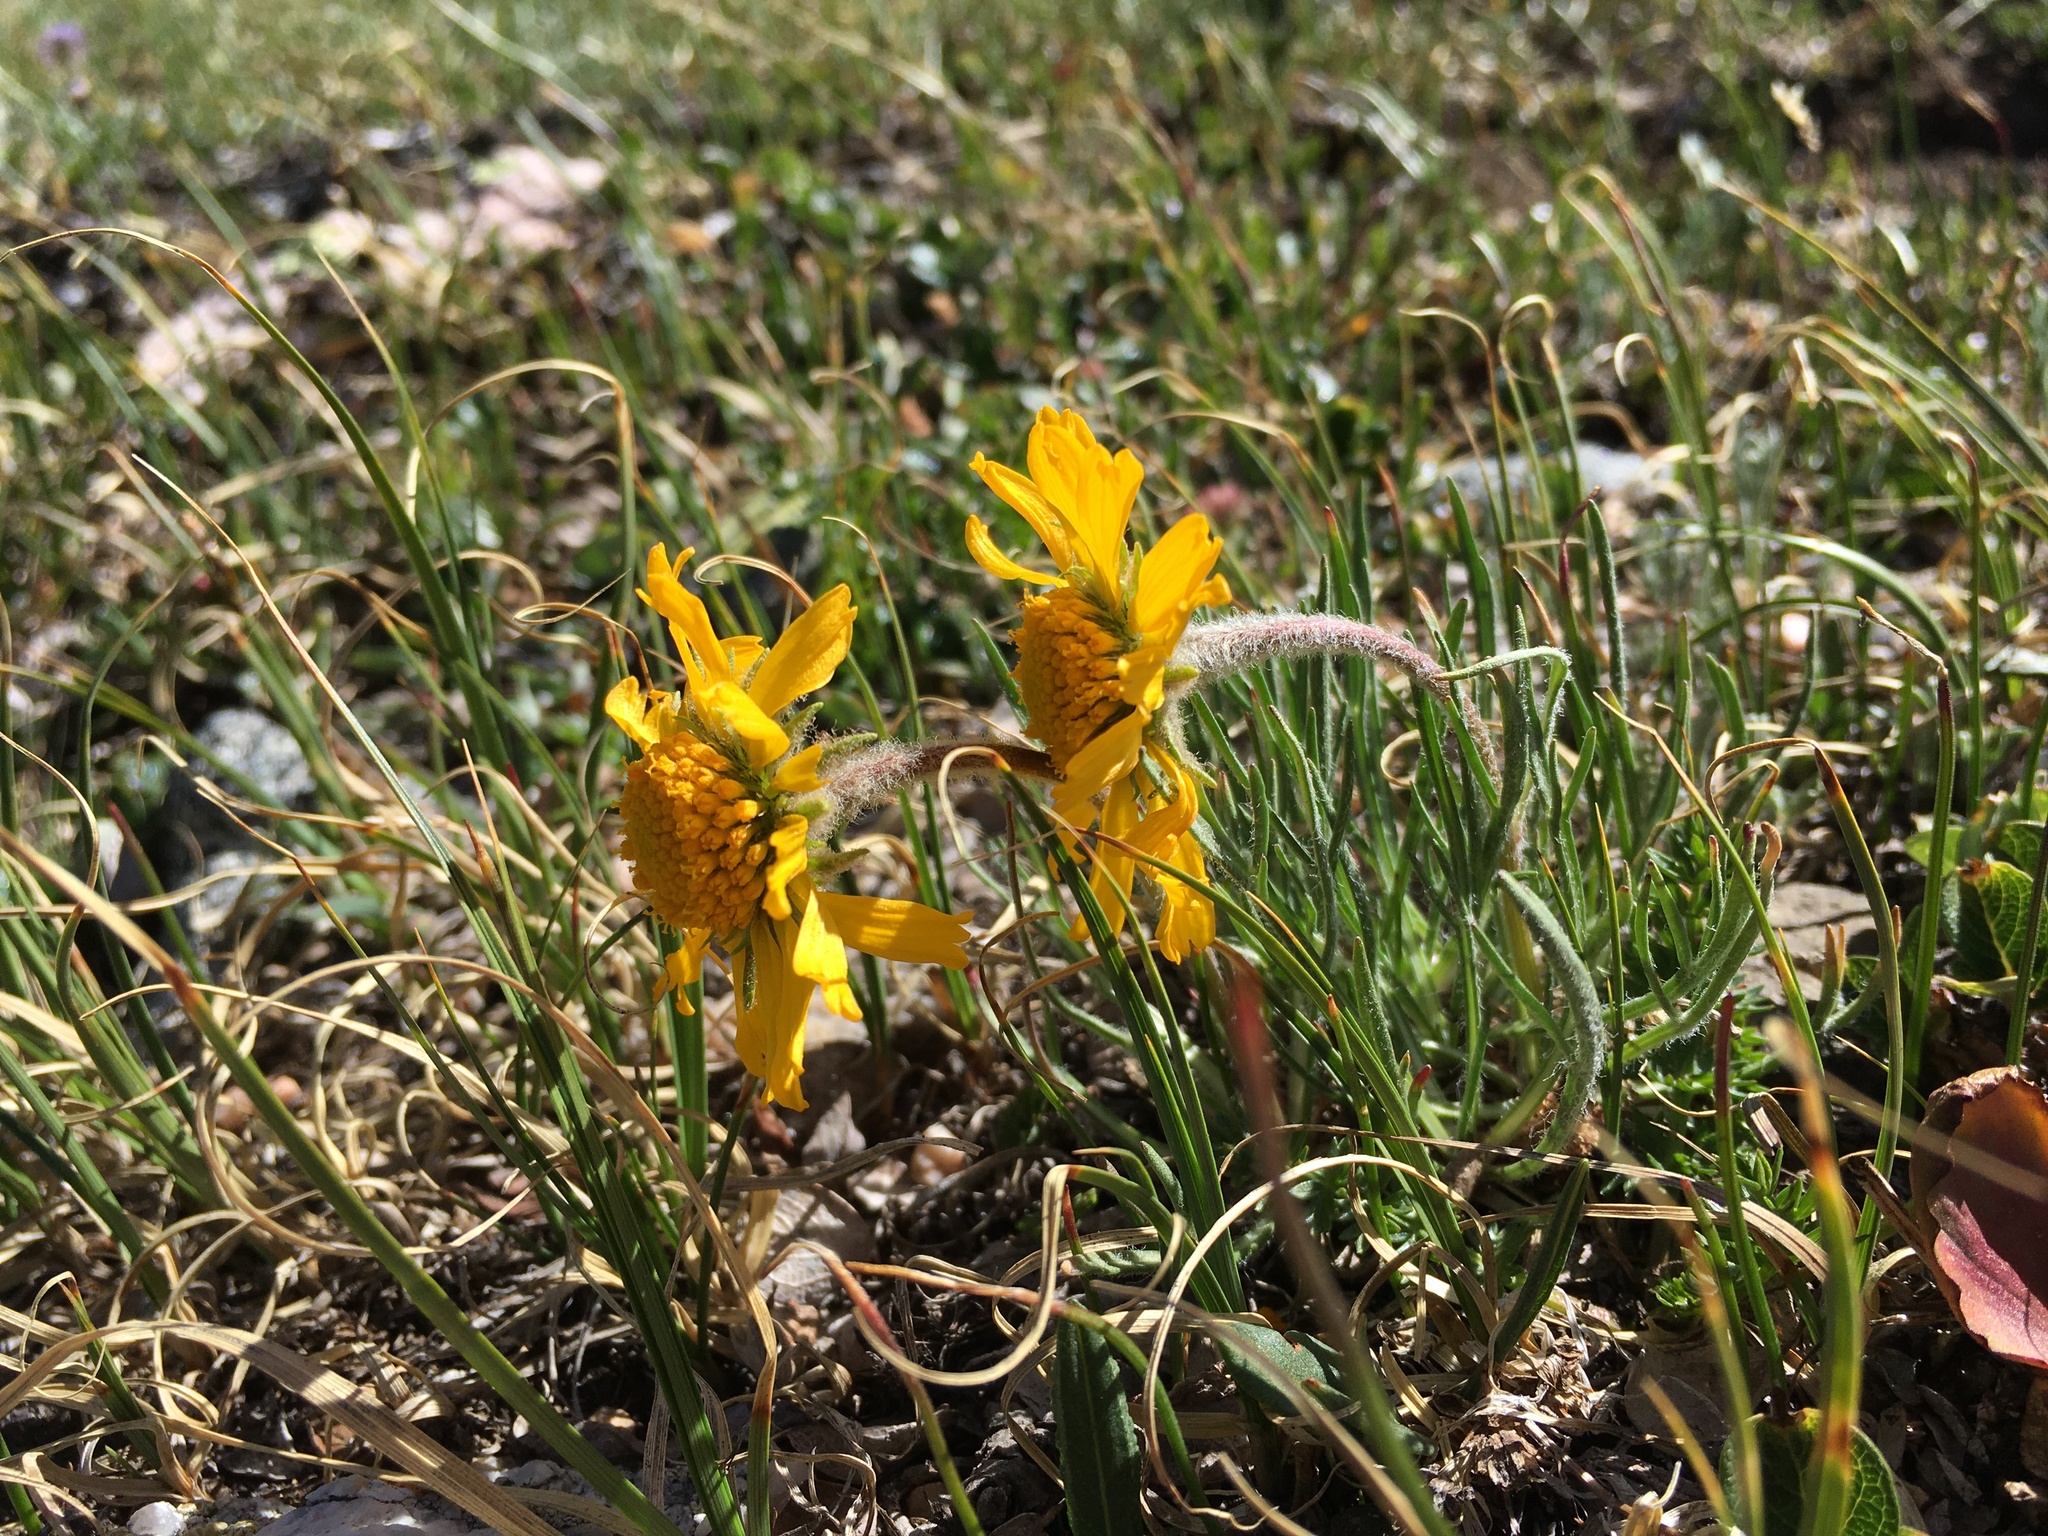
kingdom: Plantae
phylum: Tracheophyta
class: Magnoliopsida
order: Asterales
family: Asteraceae
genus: Hymenoxys
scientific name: Hymenoxys brandegeei
